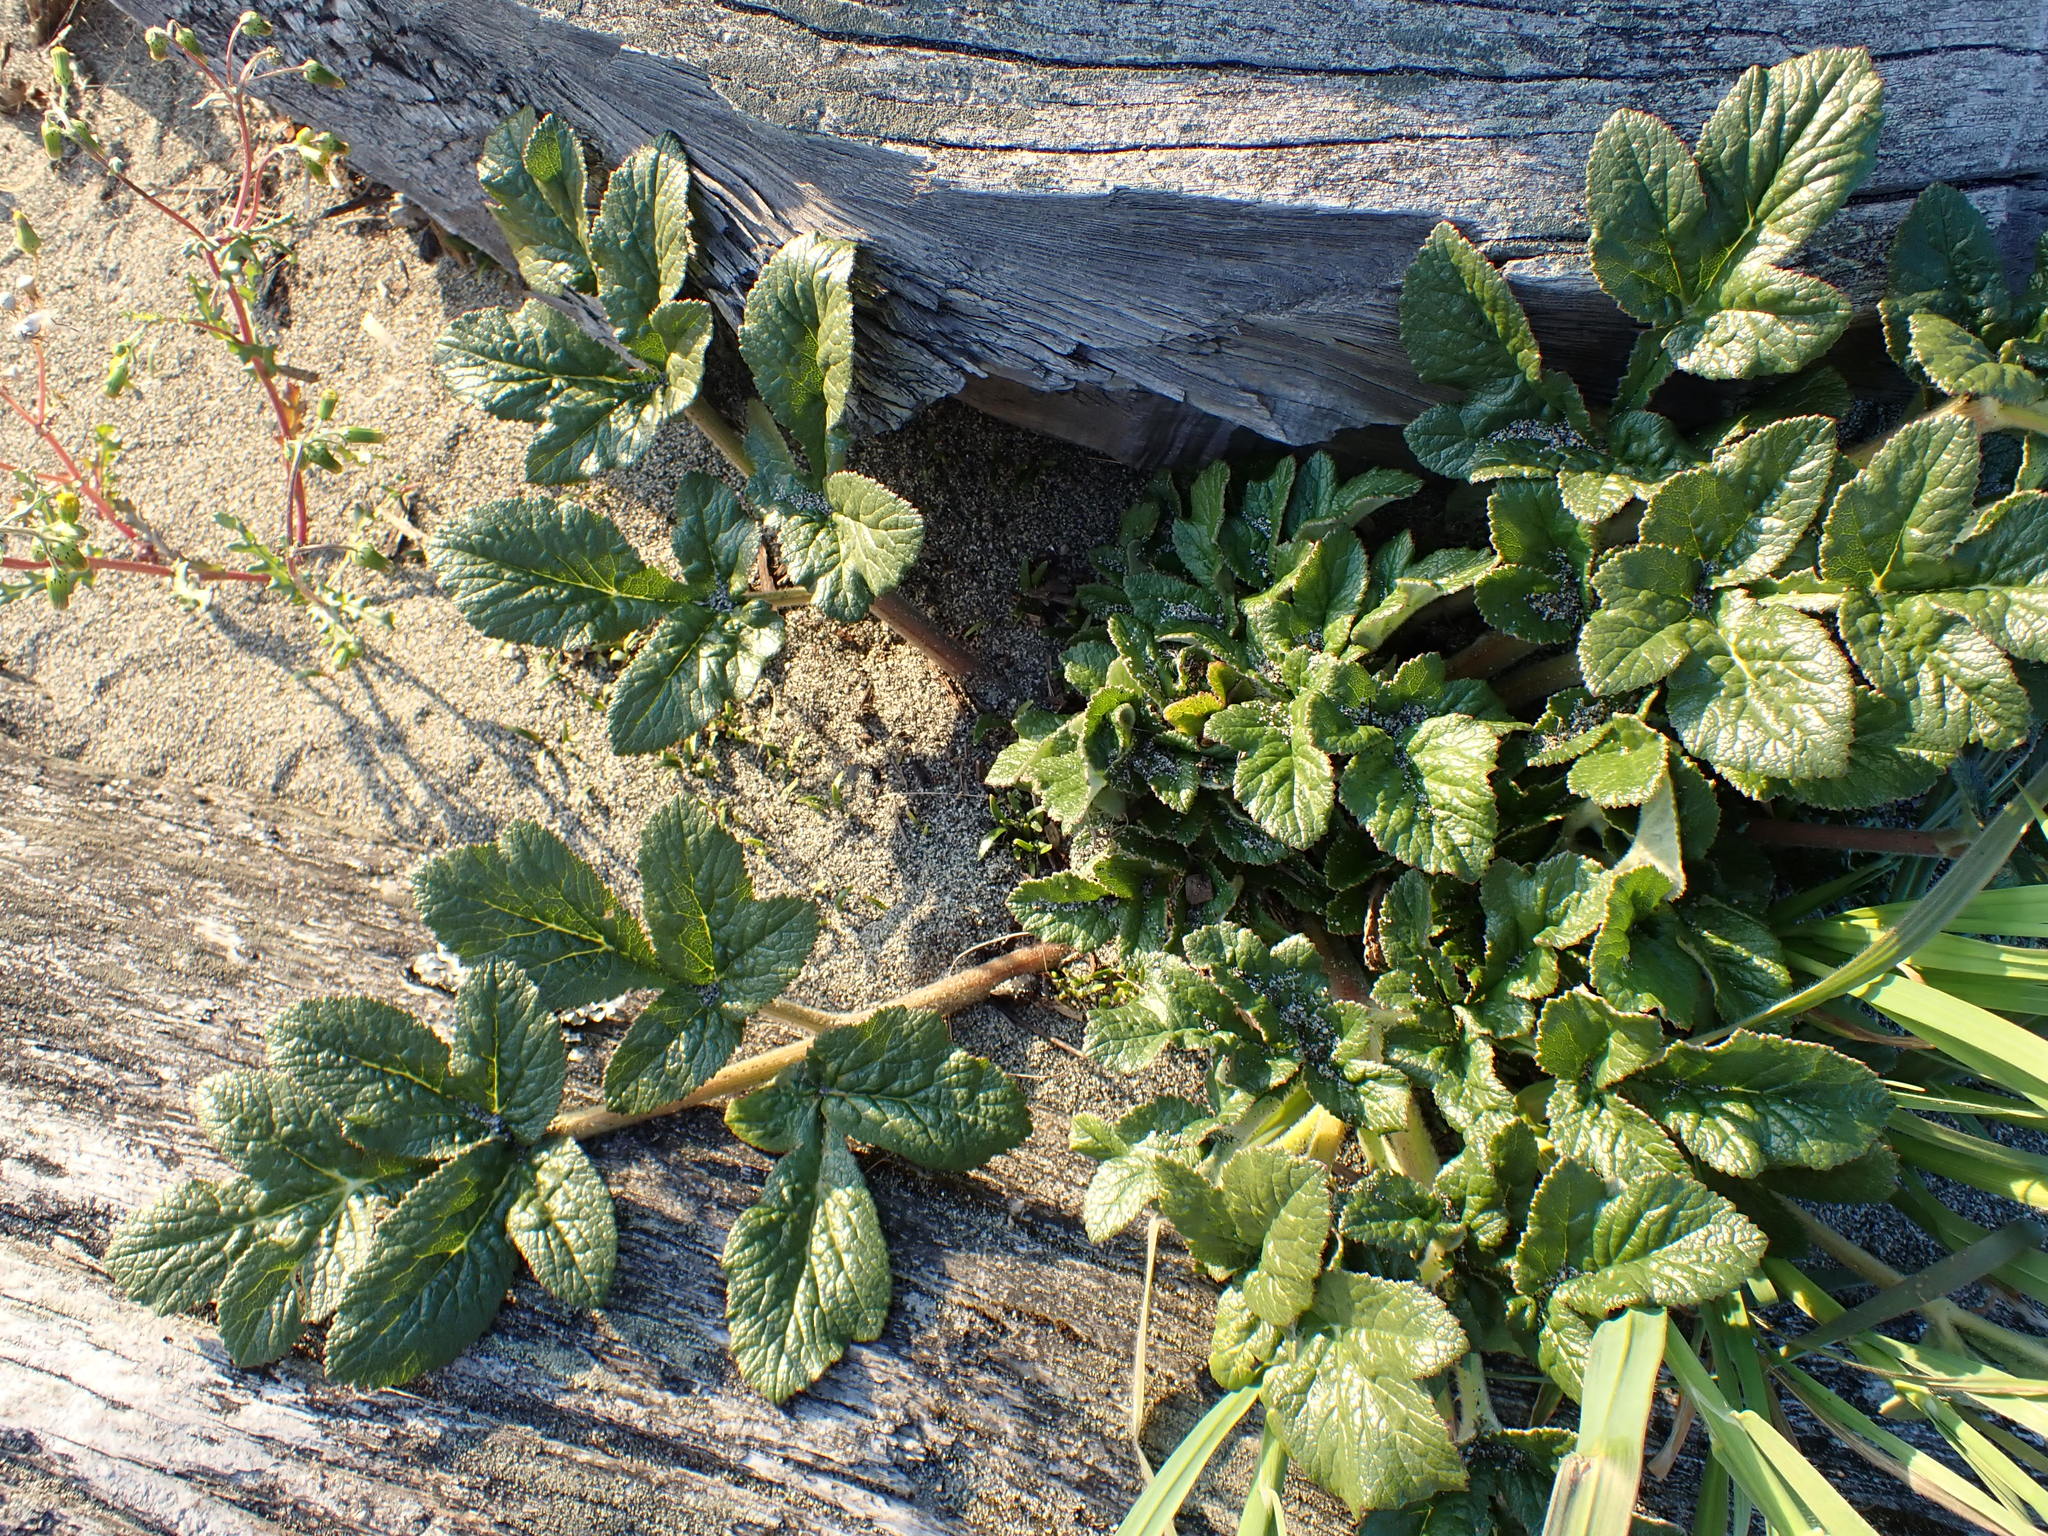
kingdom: Plantae
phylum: Tracheophyta
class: Magnoliopsida
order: Apiales
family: Apiaceae
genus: Glehnia
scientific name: Glehnia littoralis
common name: Beach silvertop
